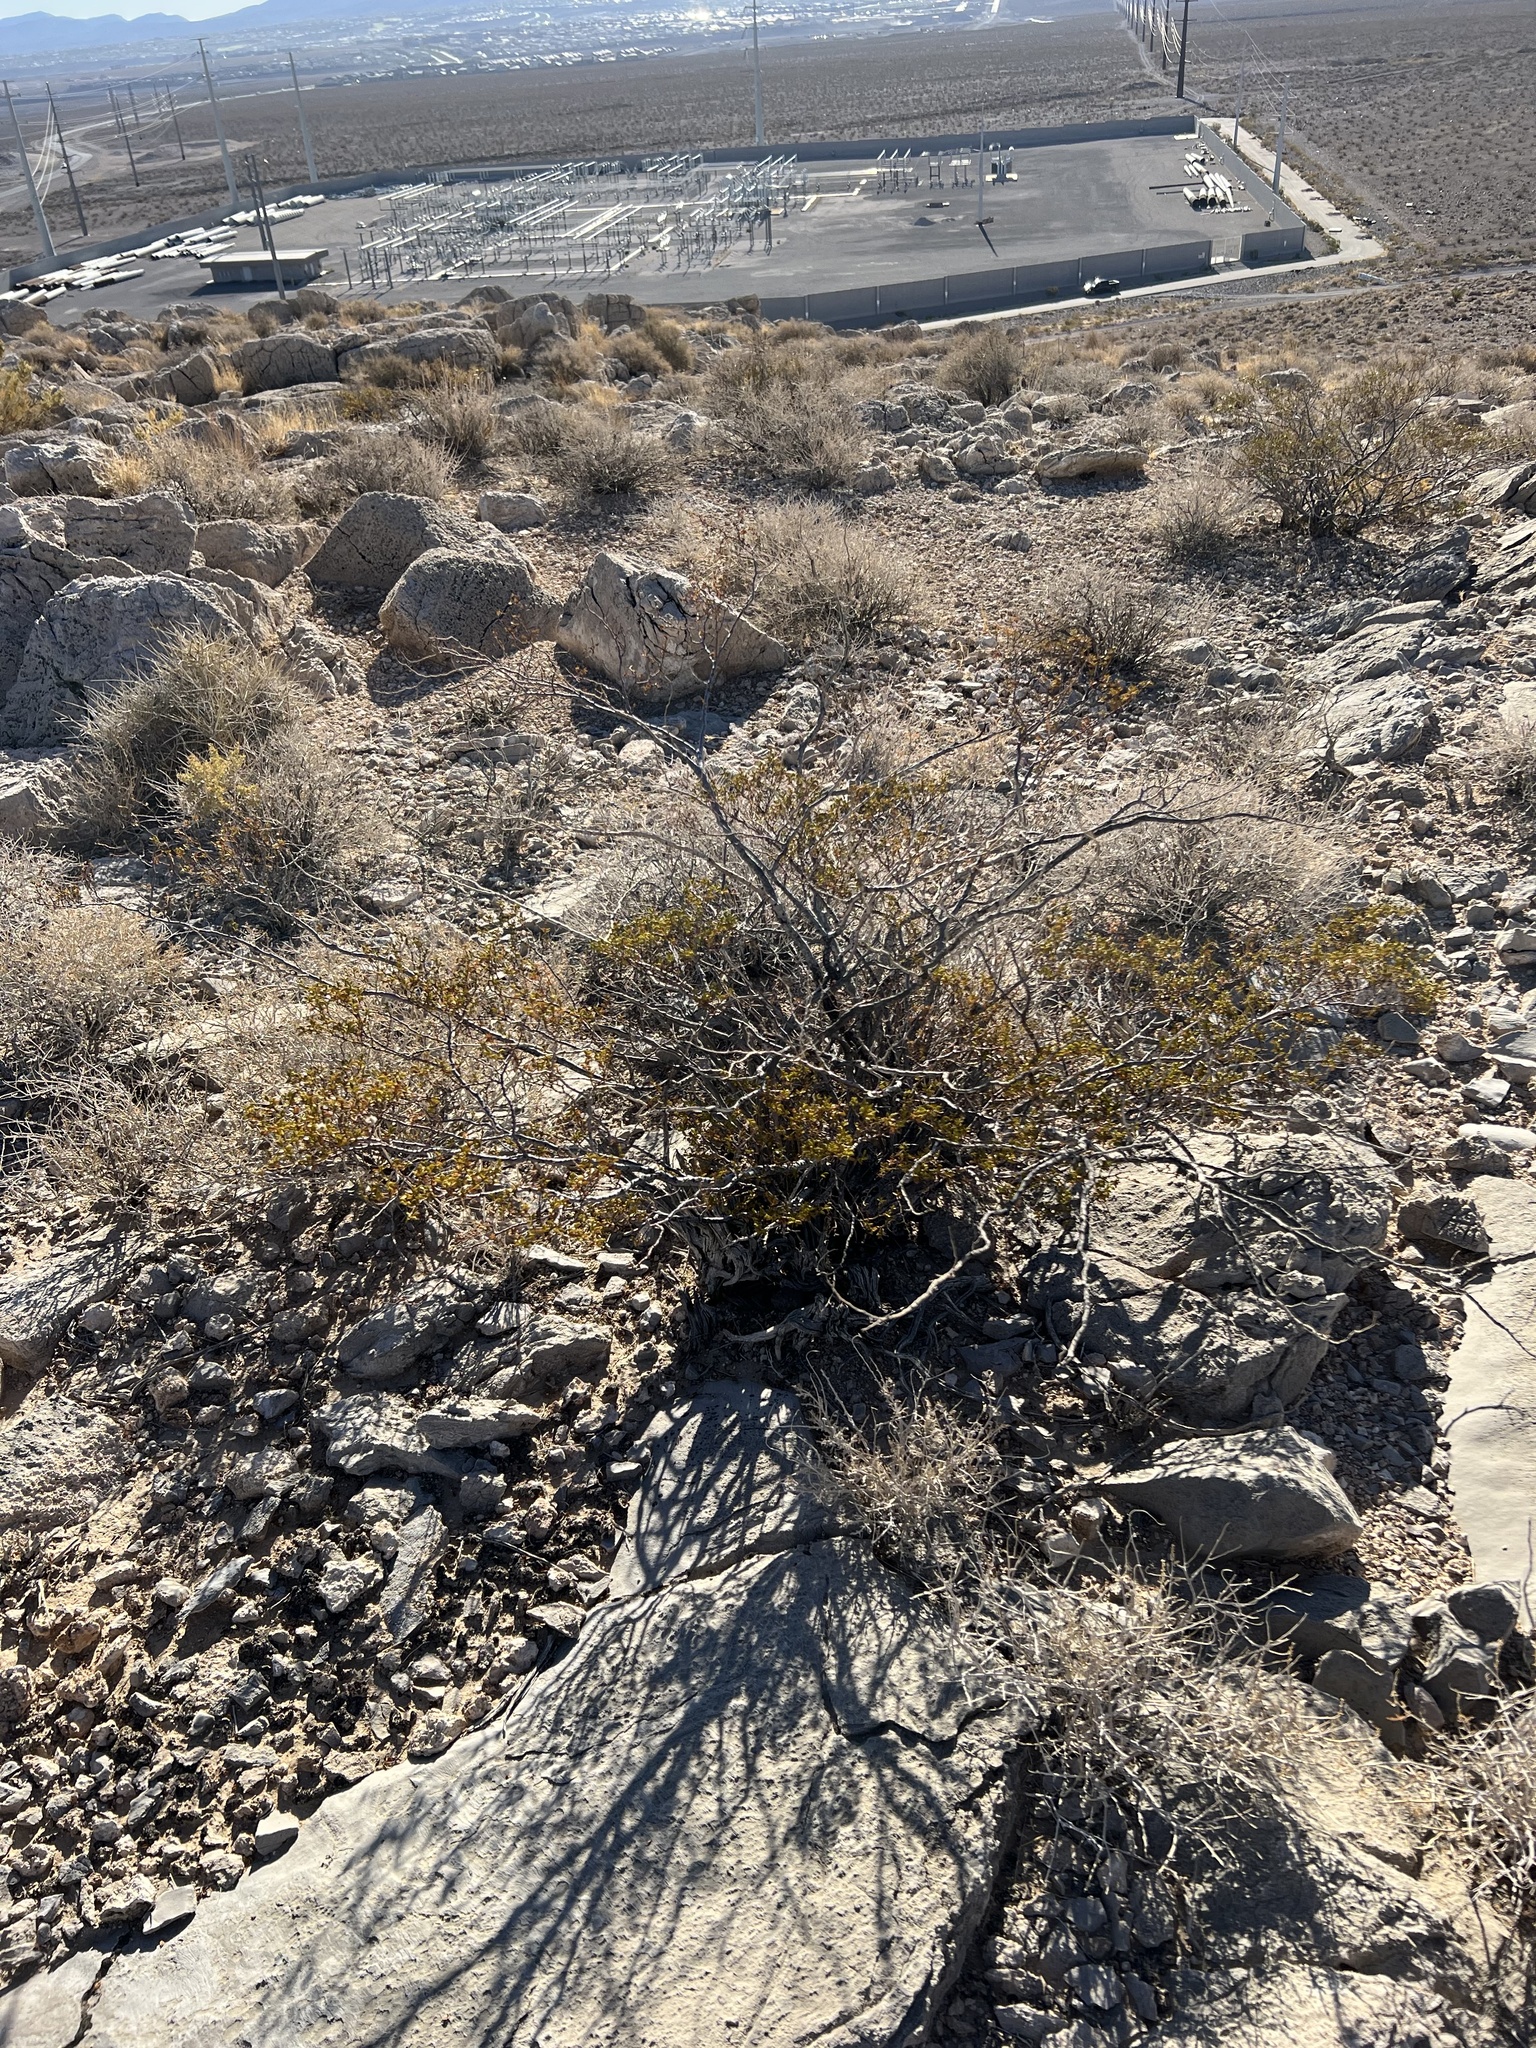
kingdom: Plantae
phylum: Tracheophyta
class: Magnoliopsida
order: Zygophyllales
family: Zygophyllaceae
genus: Larrea
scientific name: Larrea tridentata
